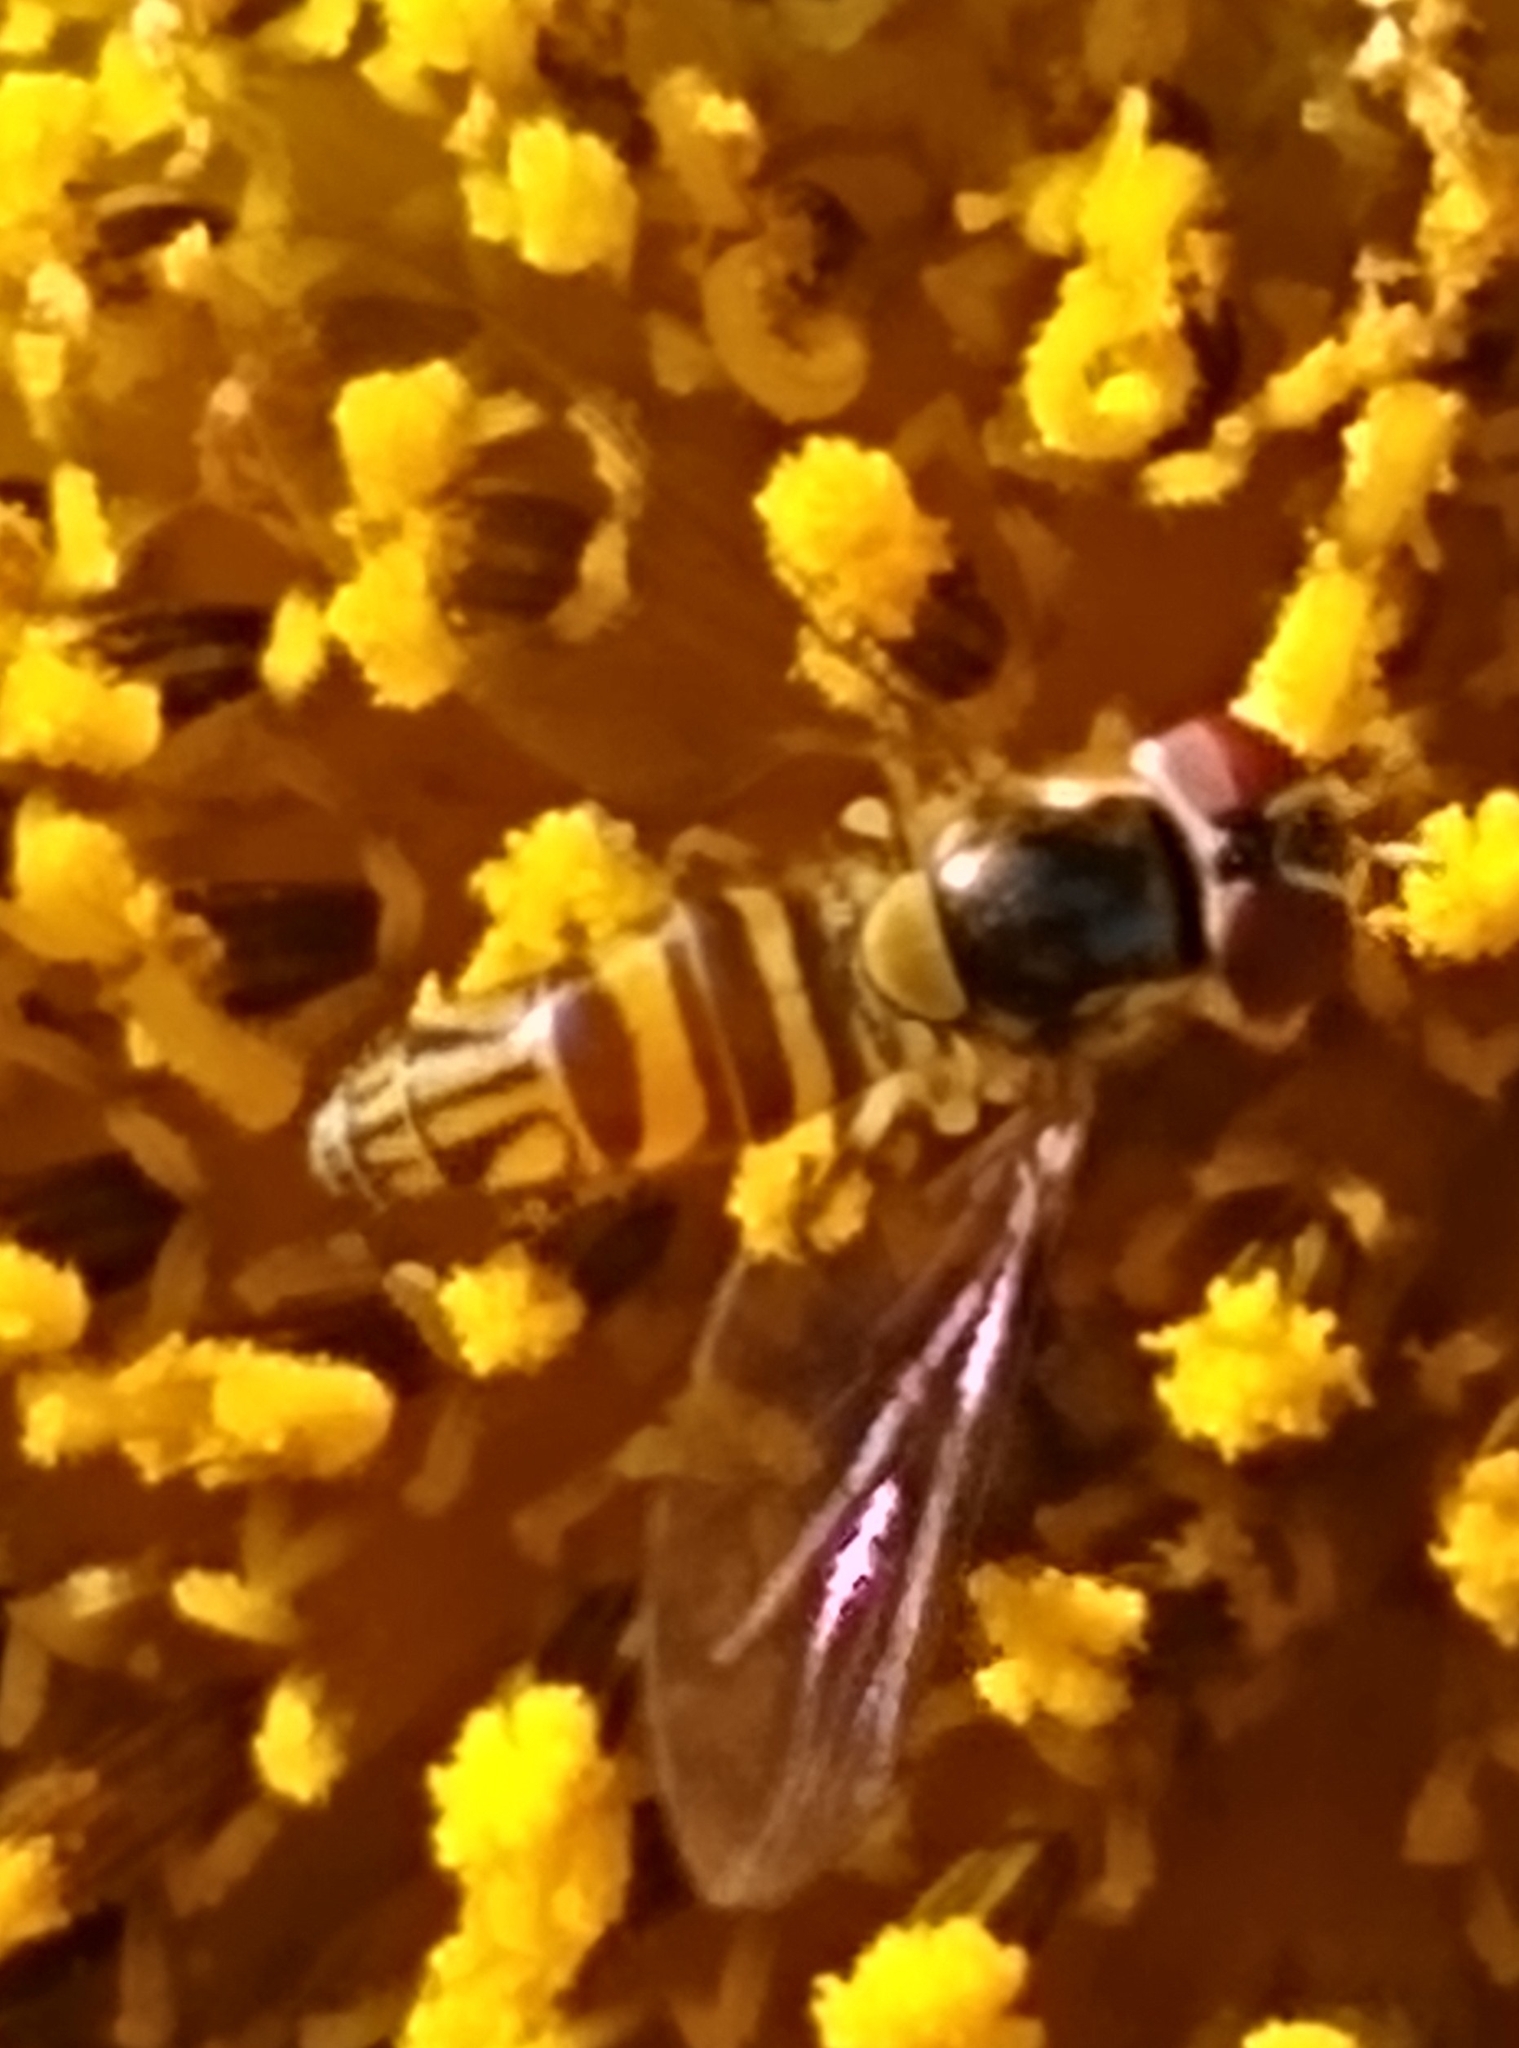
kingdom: Animalia
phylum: Arthropoda
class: Insecta
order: Diptera
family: Syrphidae
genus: Allograpta
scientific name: Allograpta obliqua
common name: Common oblique syrphid
